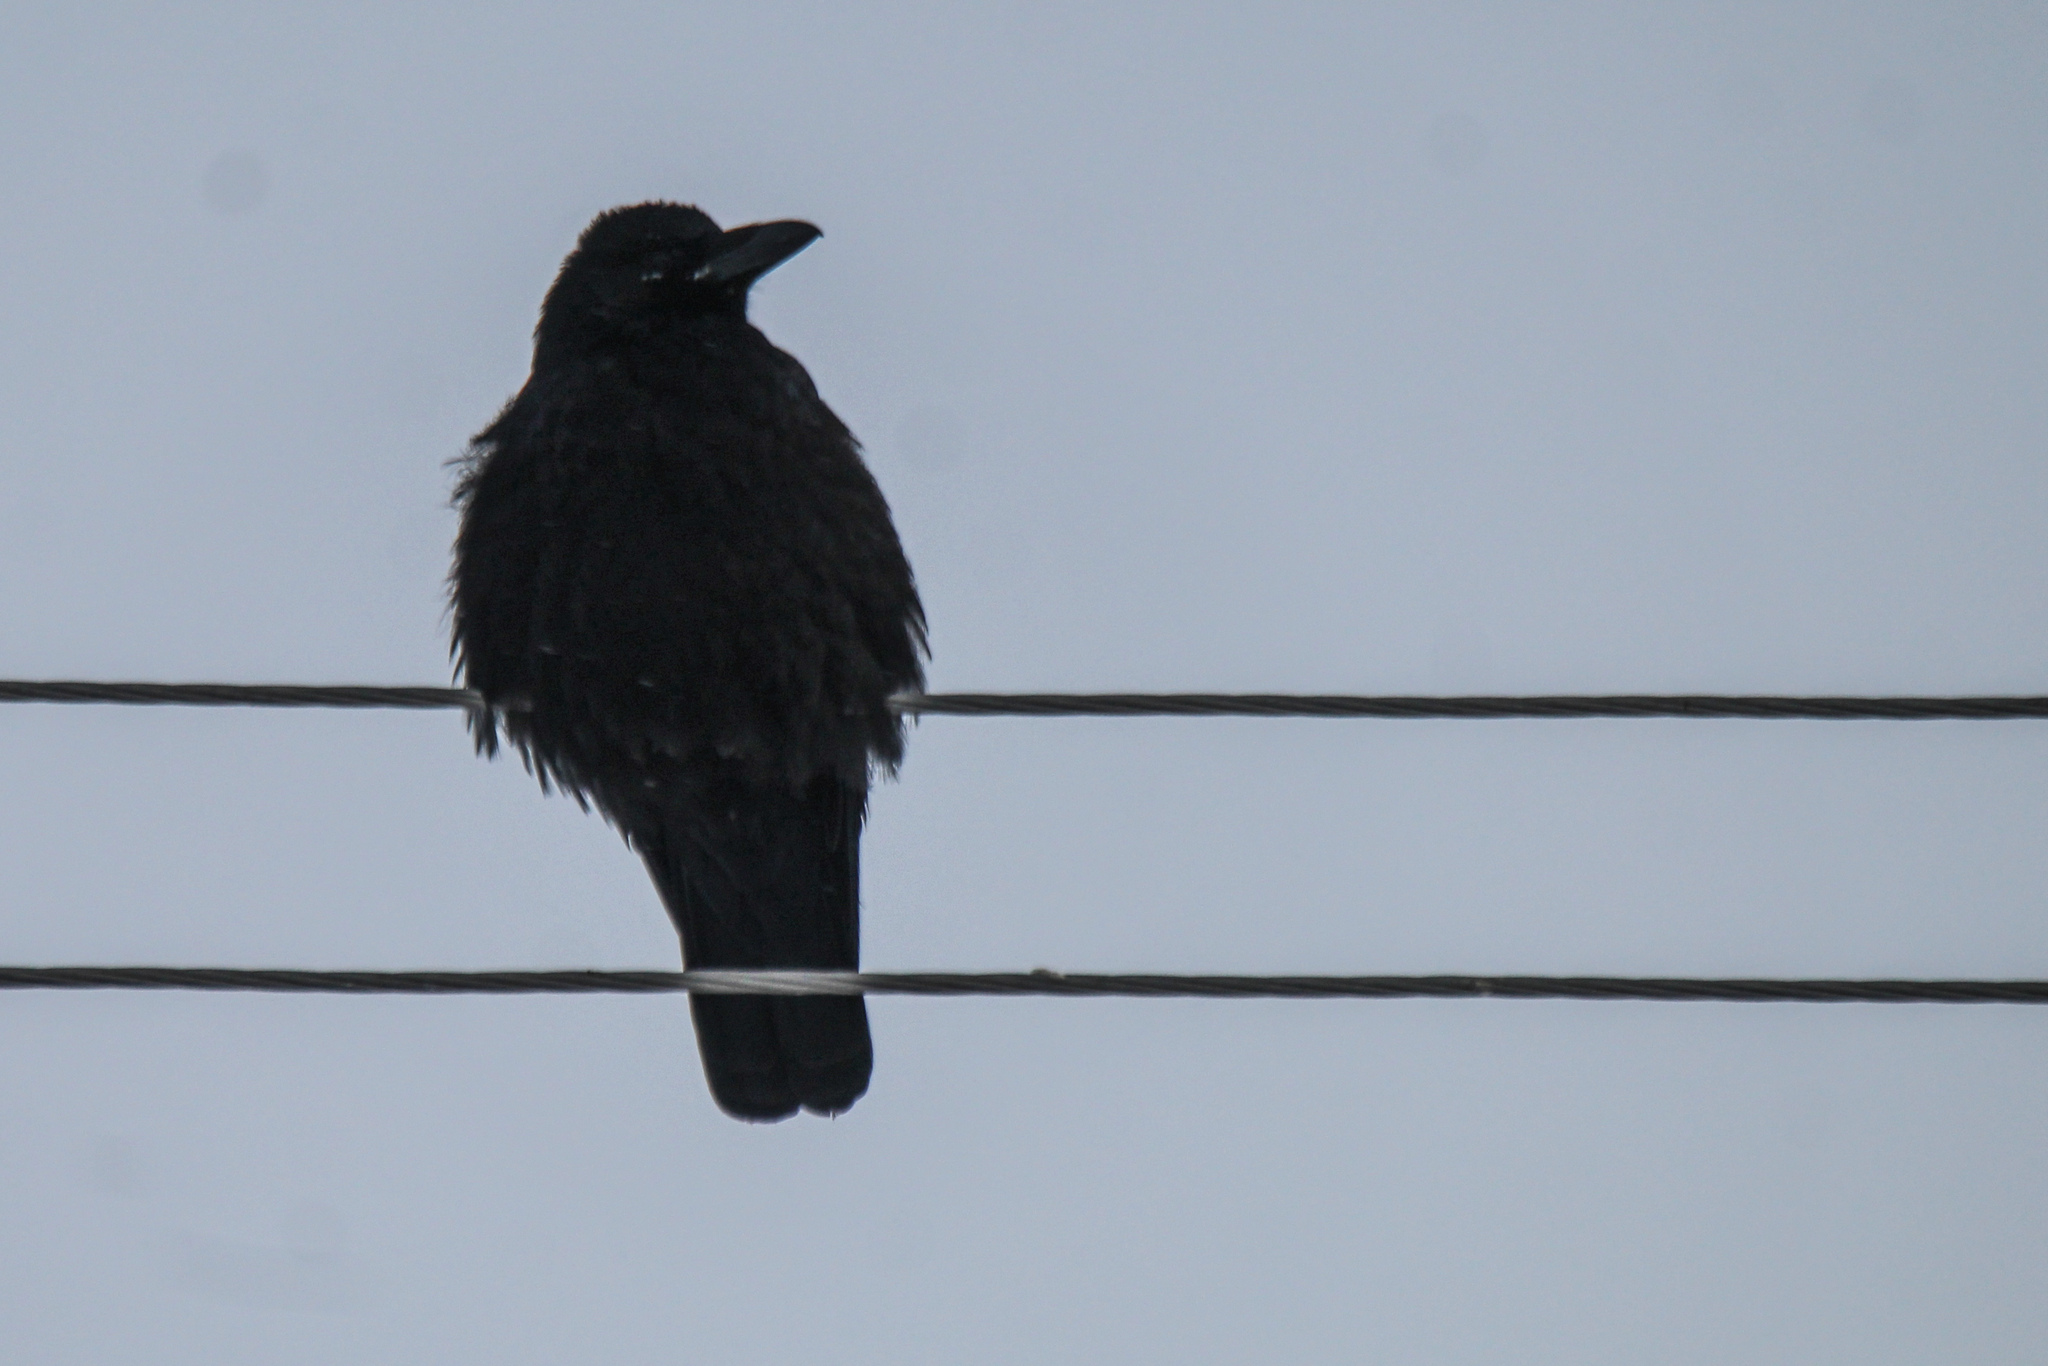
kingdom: Animalia
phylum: Chordata
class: Aves
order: Passeriformes
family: Corvidae
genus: Corvus
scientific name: Corvus corone
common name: Carrion crow
